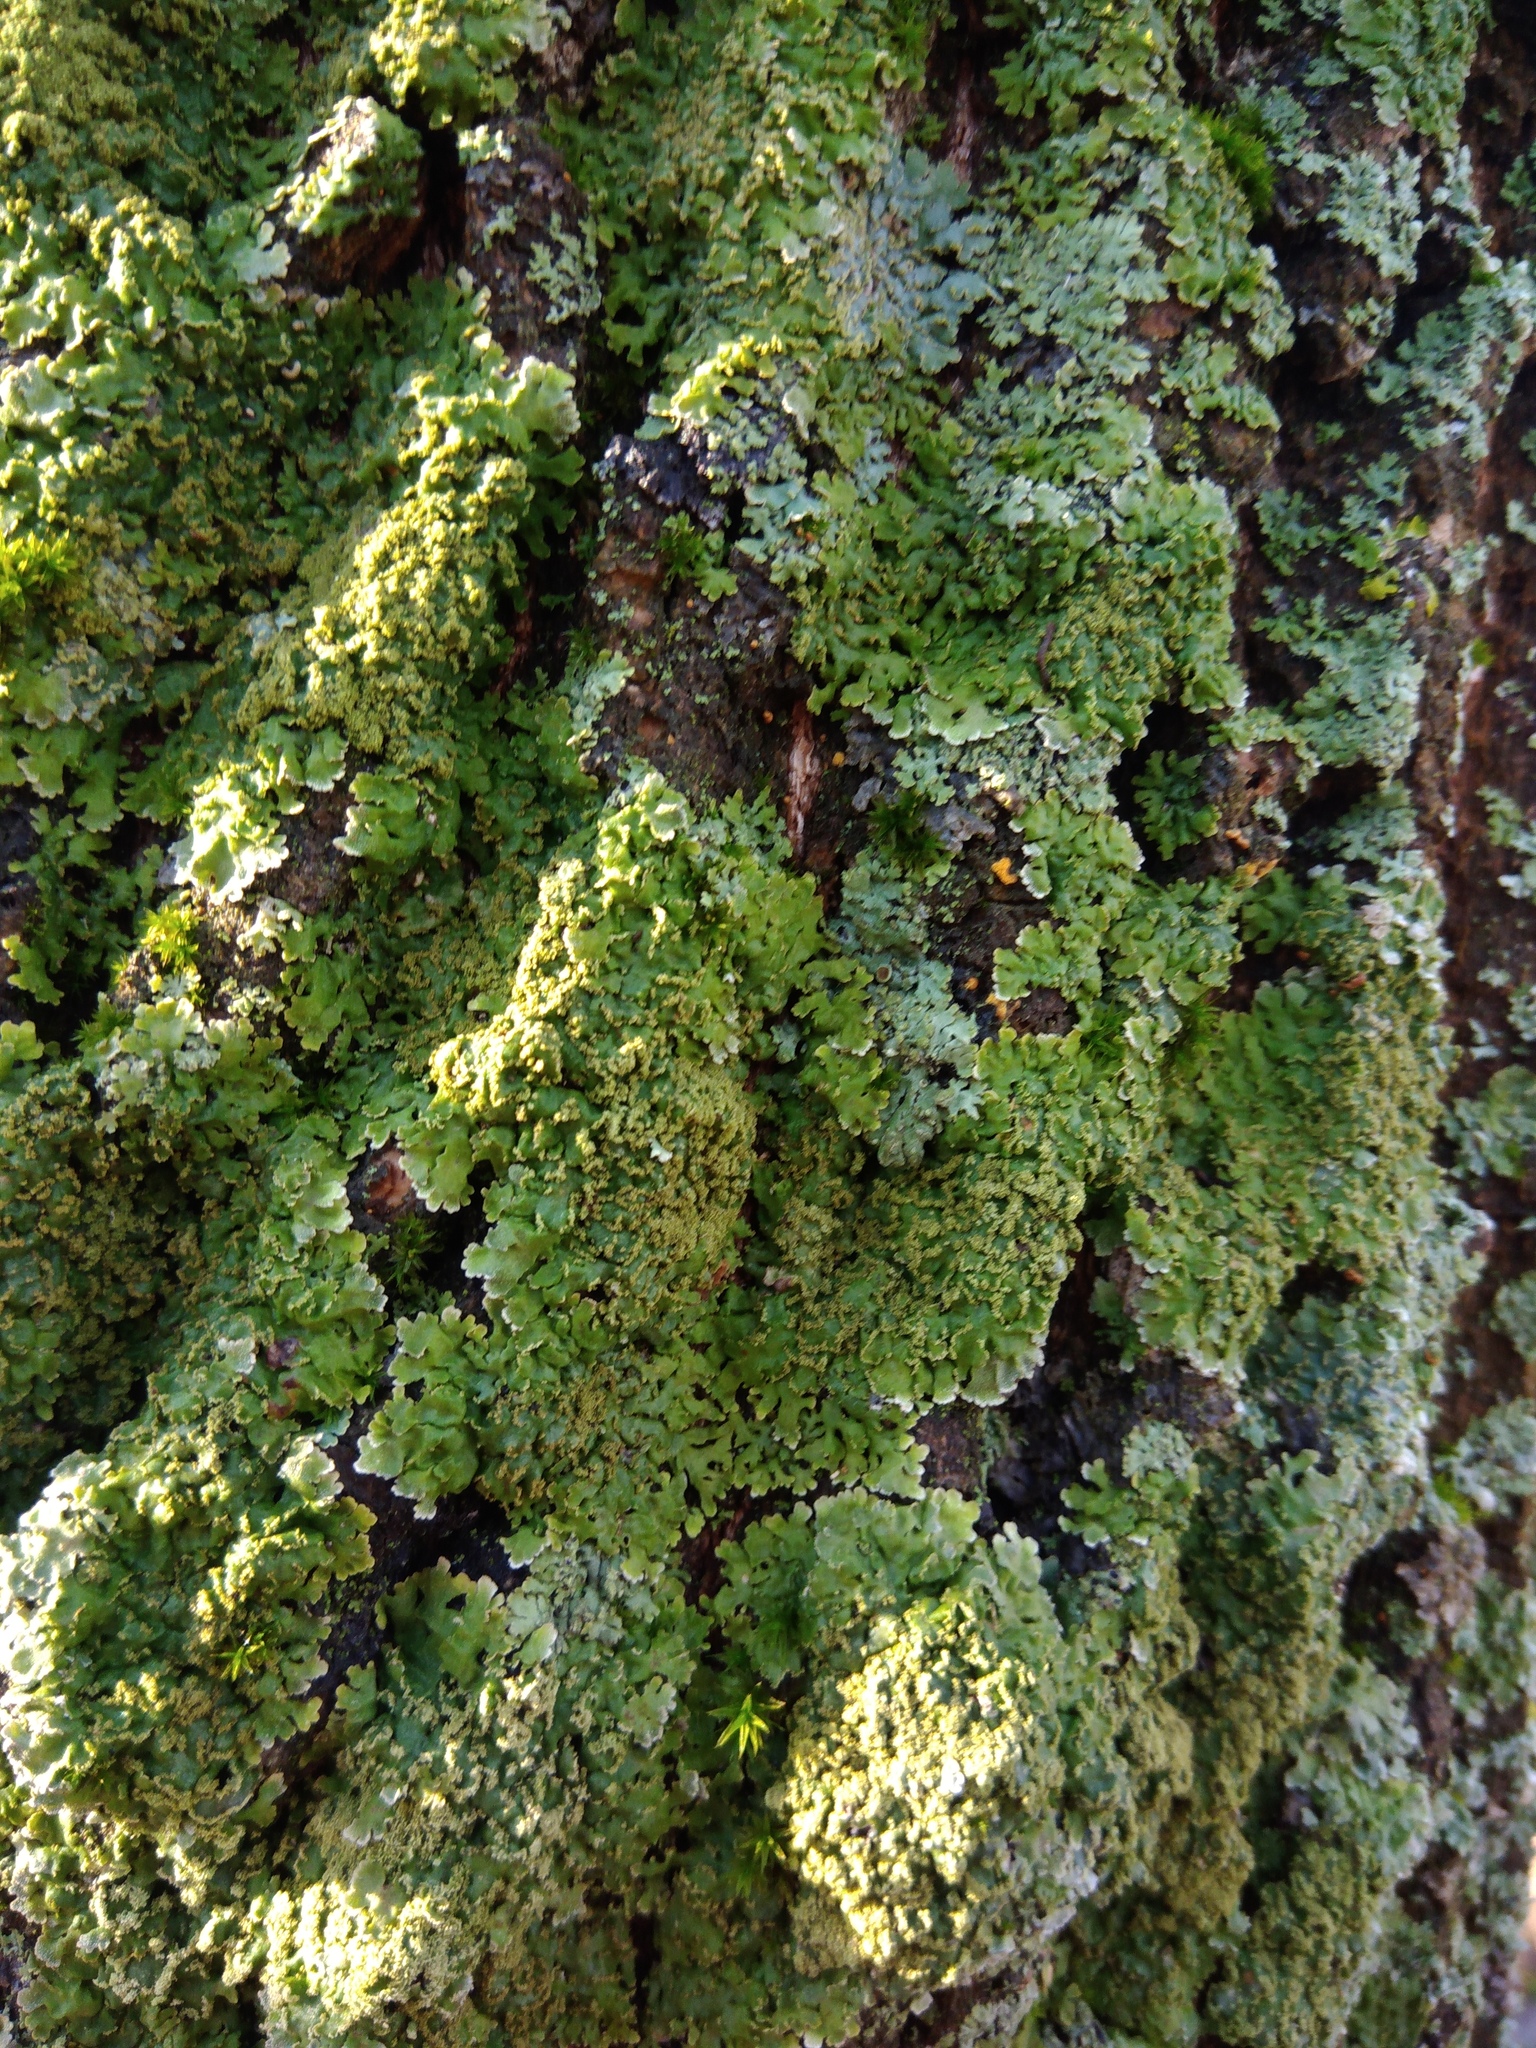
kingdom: Fungi
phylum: Ascomycota
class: Lecanoromycetes
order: Caliciales
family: Physciaceae
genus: Poeltonia
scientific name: Poeltonia grisea
